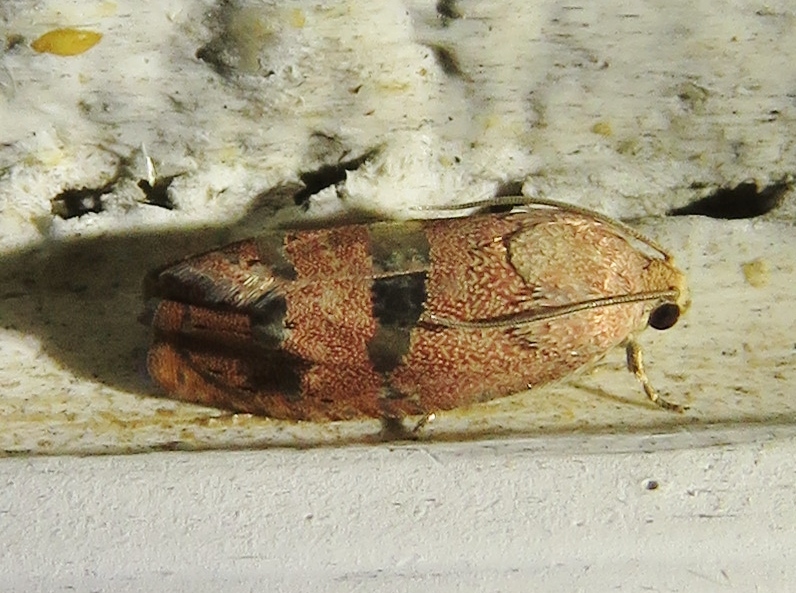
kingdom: Animalia
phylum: Arthropoda
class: Insecta
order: Lepidoptera
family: Tortricidae
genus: Cydia
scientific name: Cydia latiferreana
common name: Filbertworm moth
